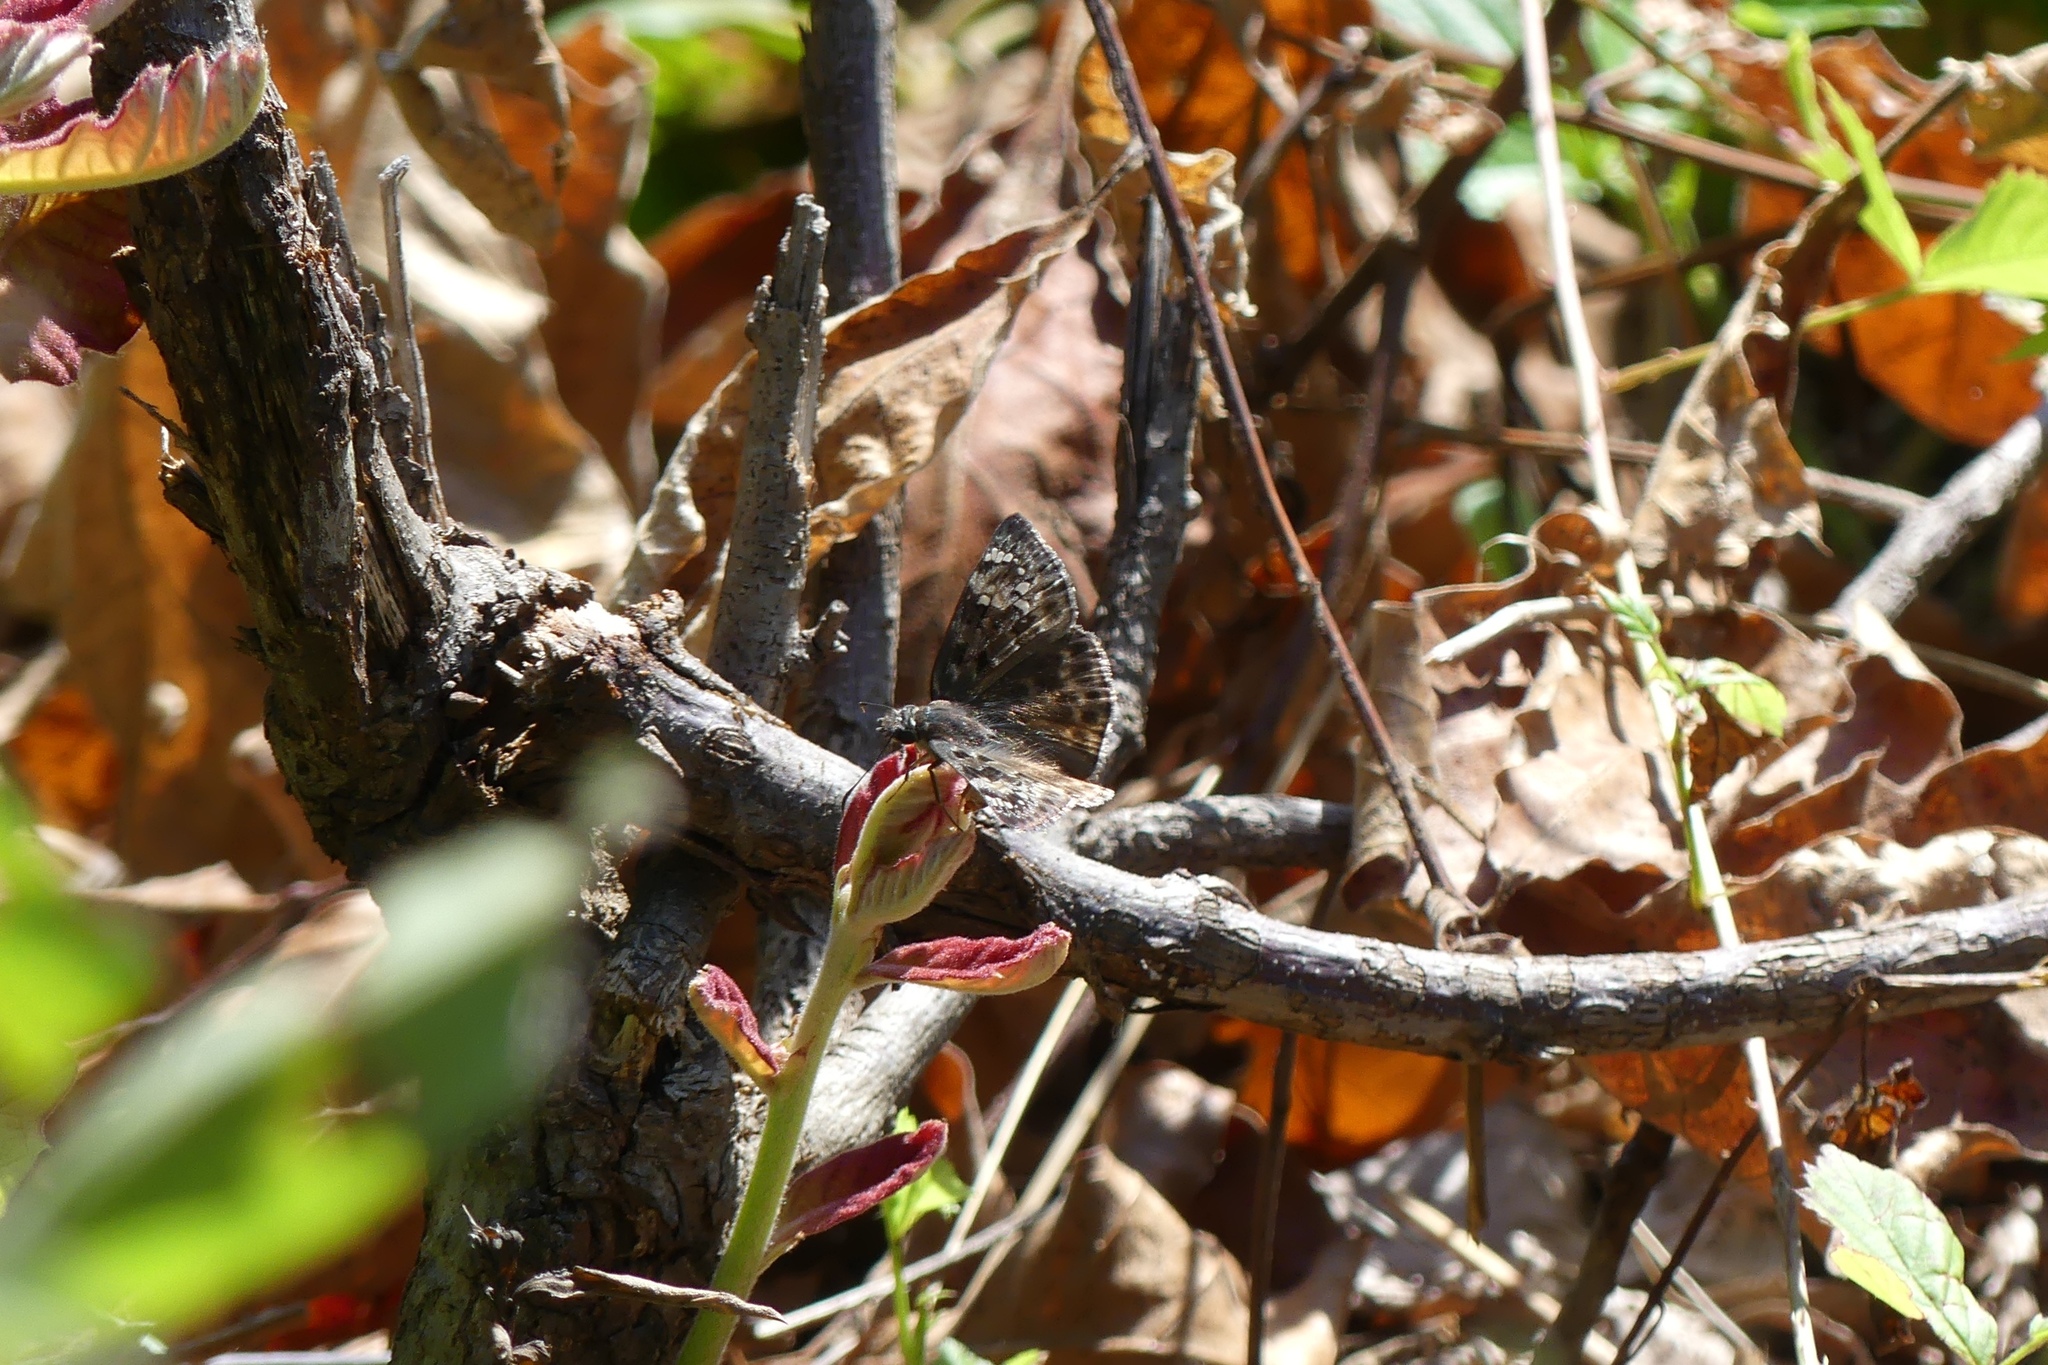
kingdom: Animalia
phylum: Arthropoda
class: Insecta
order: Lepidoptera
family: Hesperiidae
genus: Erynnis
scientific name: Erynnis horatius
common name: Horace's duskywing
